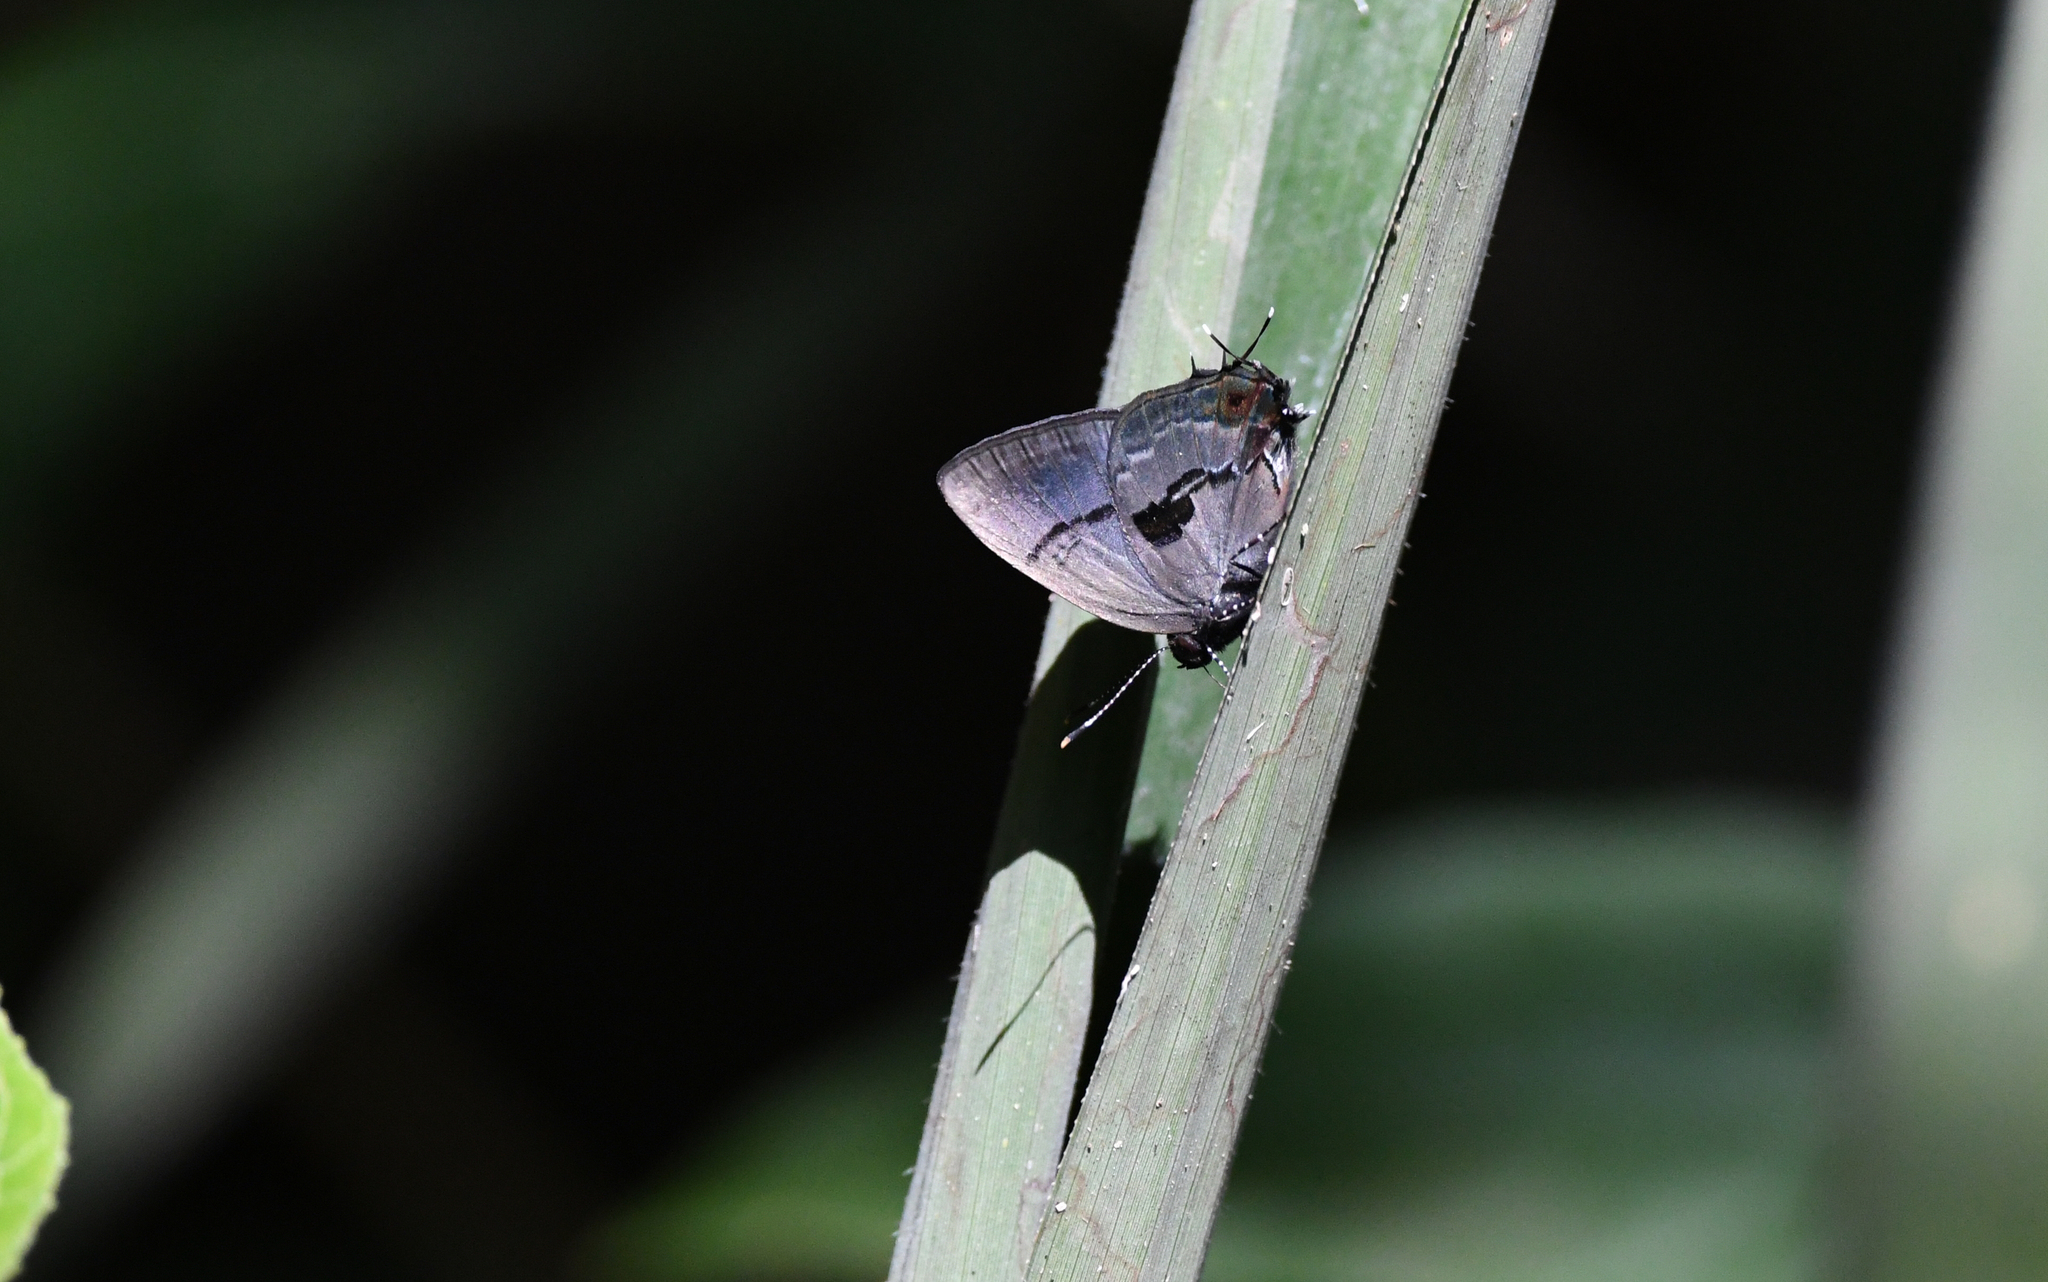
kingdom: Animalia
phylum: Arthropoda
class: Insecta
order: Lepidoptera
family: Lycaenidae
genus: Calycopis
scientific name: Calycopis
